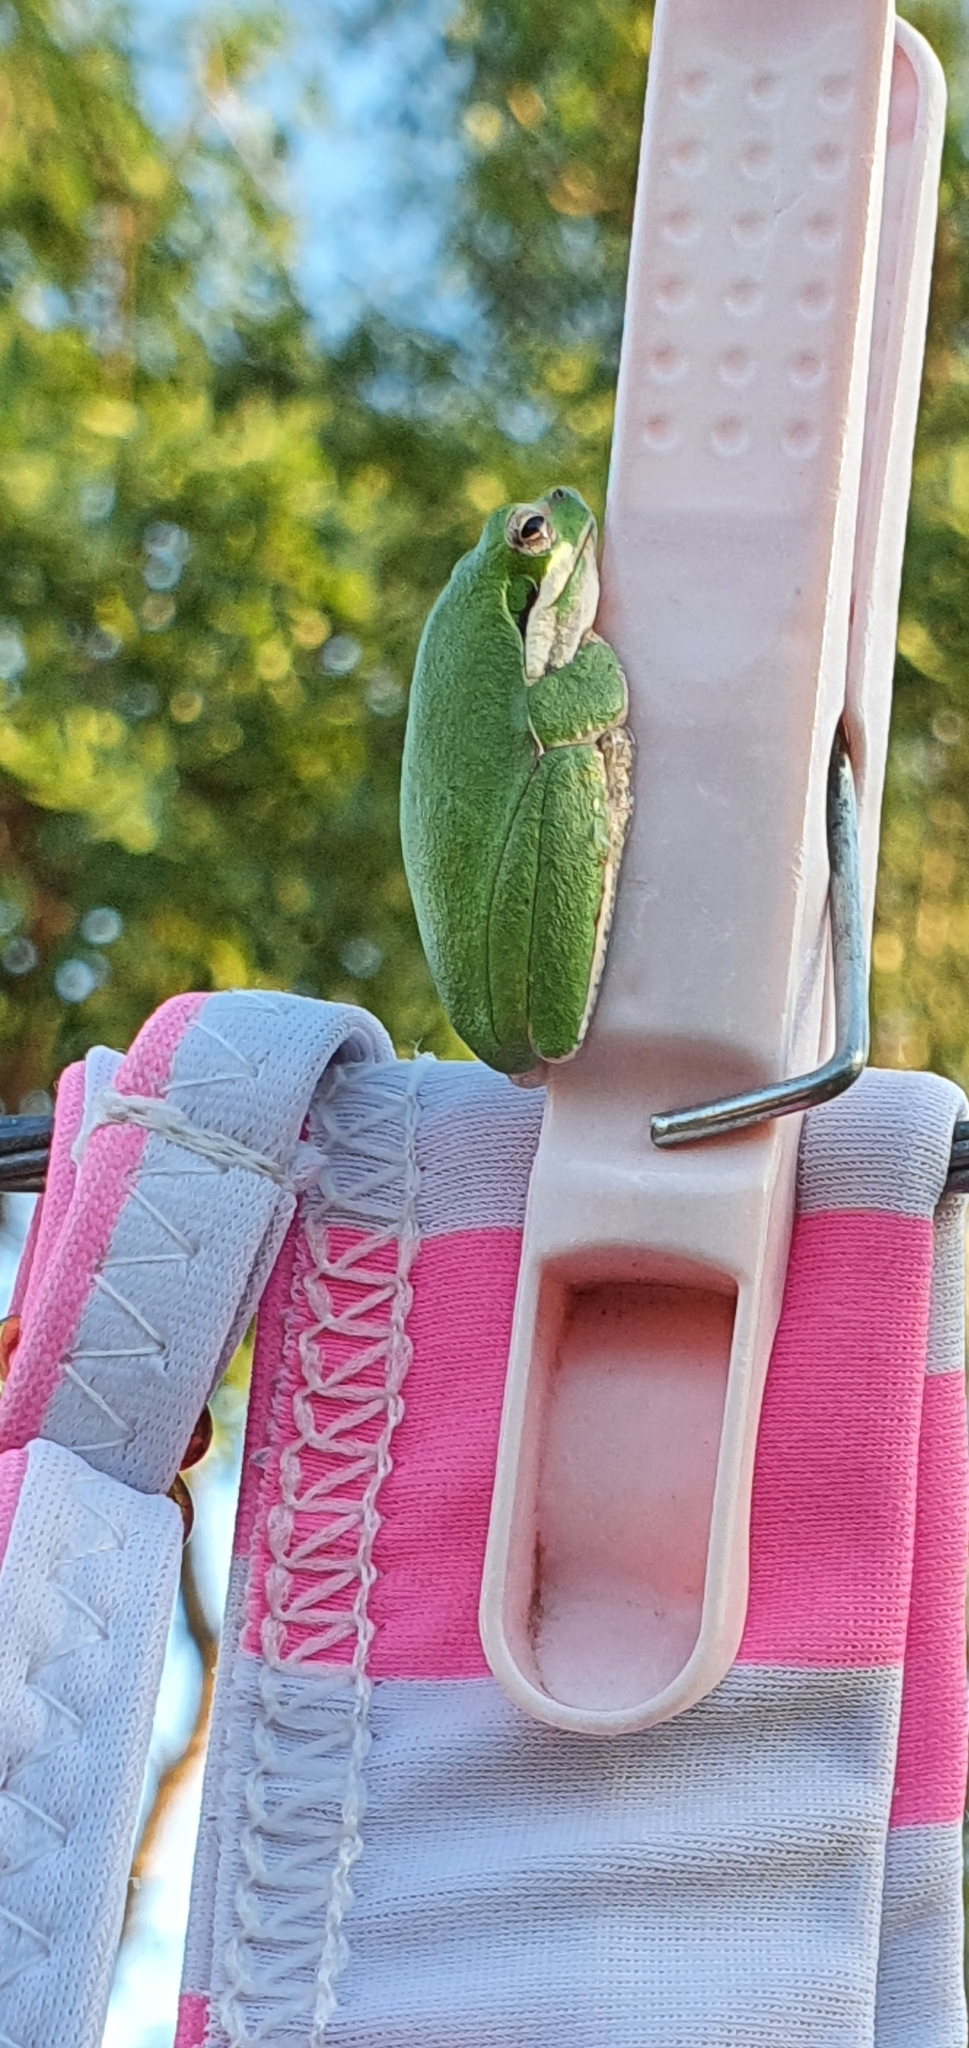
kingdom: Animalia
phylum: Chordata
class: Amphibia
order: Anura
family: Pelodryadidae
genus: Litoria
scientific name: Litoria fallax
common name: Eastern dwarf treefrog
